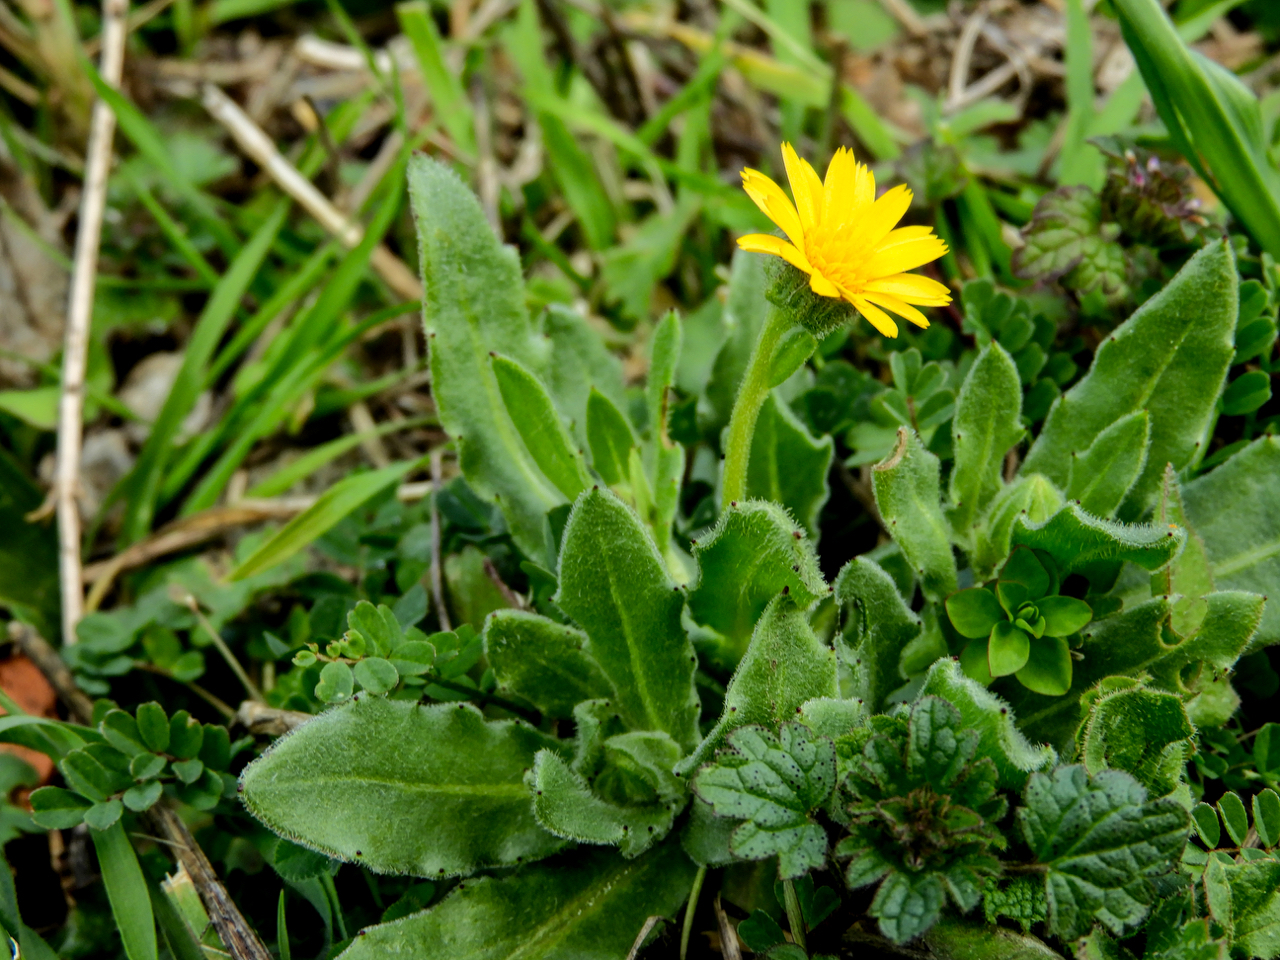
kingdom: Plantae
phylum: Tracheophyta
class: Magnoliopsida
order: Asterales
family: Asteraceae
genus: Calendula
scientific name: Calendula arvensis
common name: Field marigold
